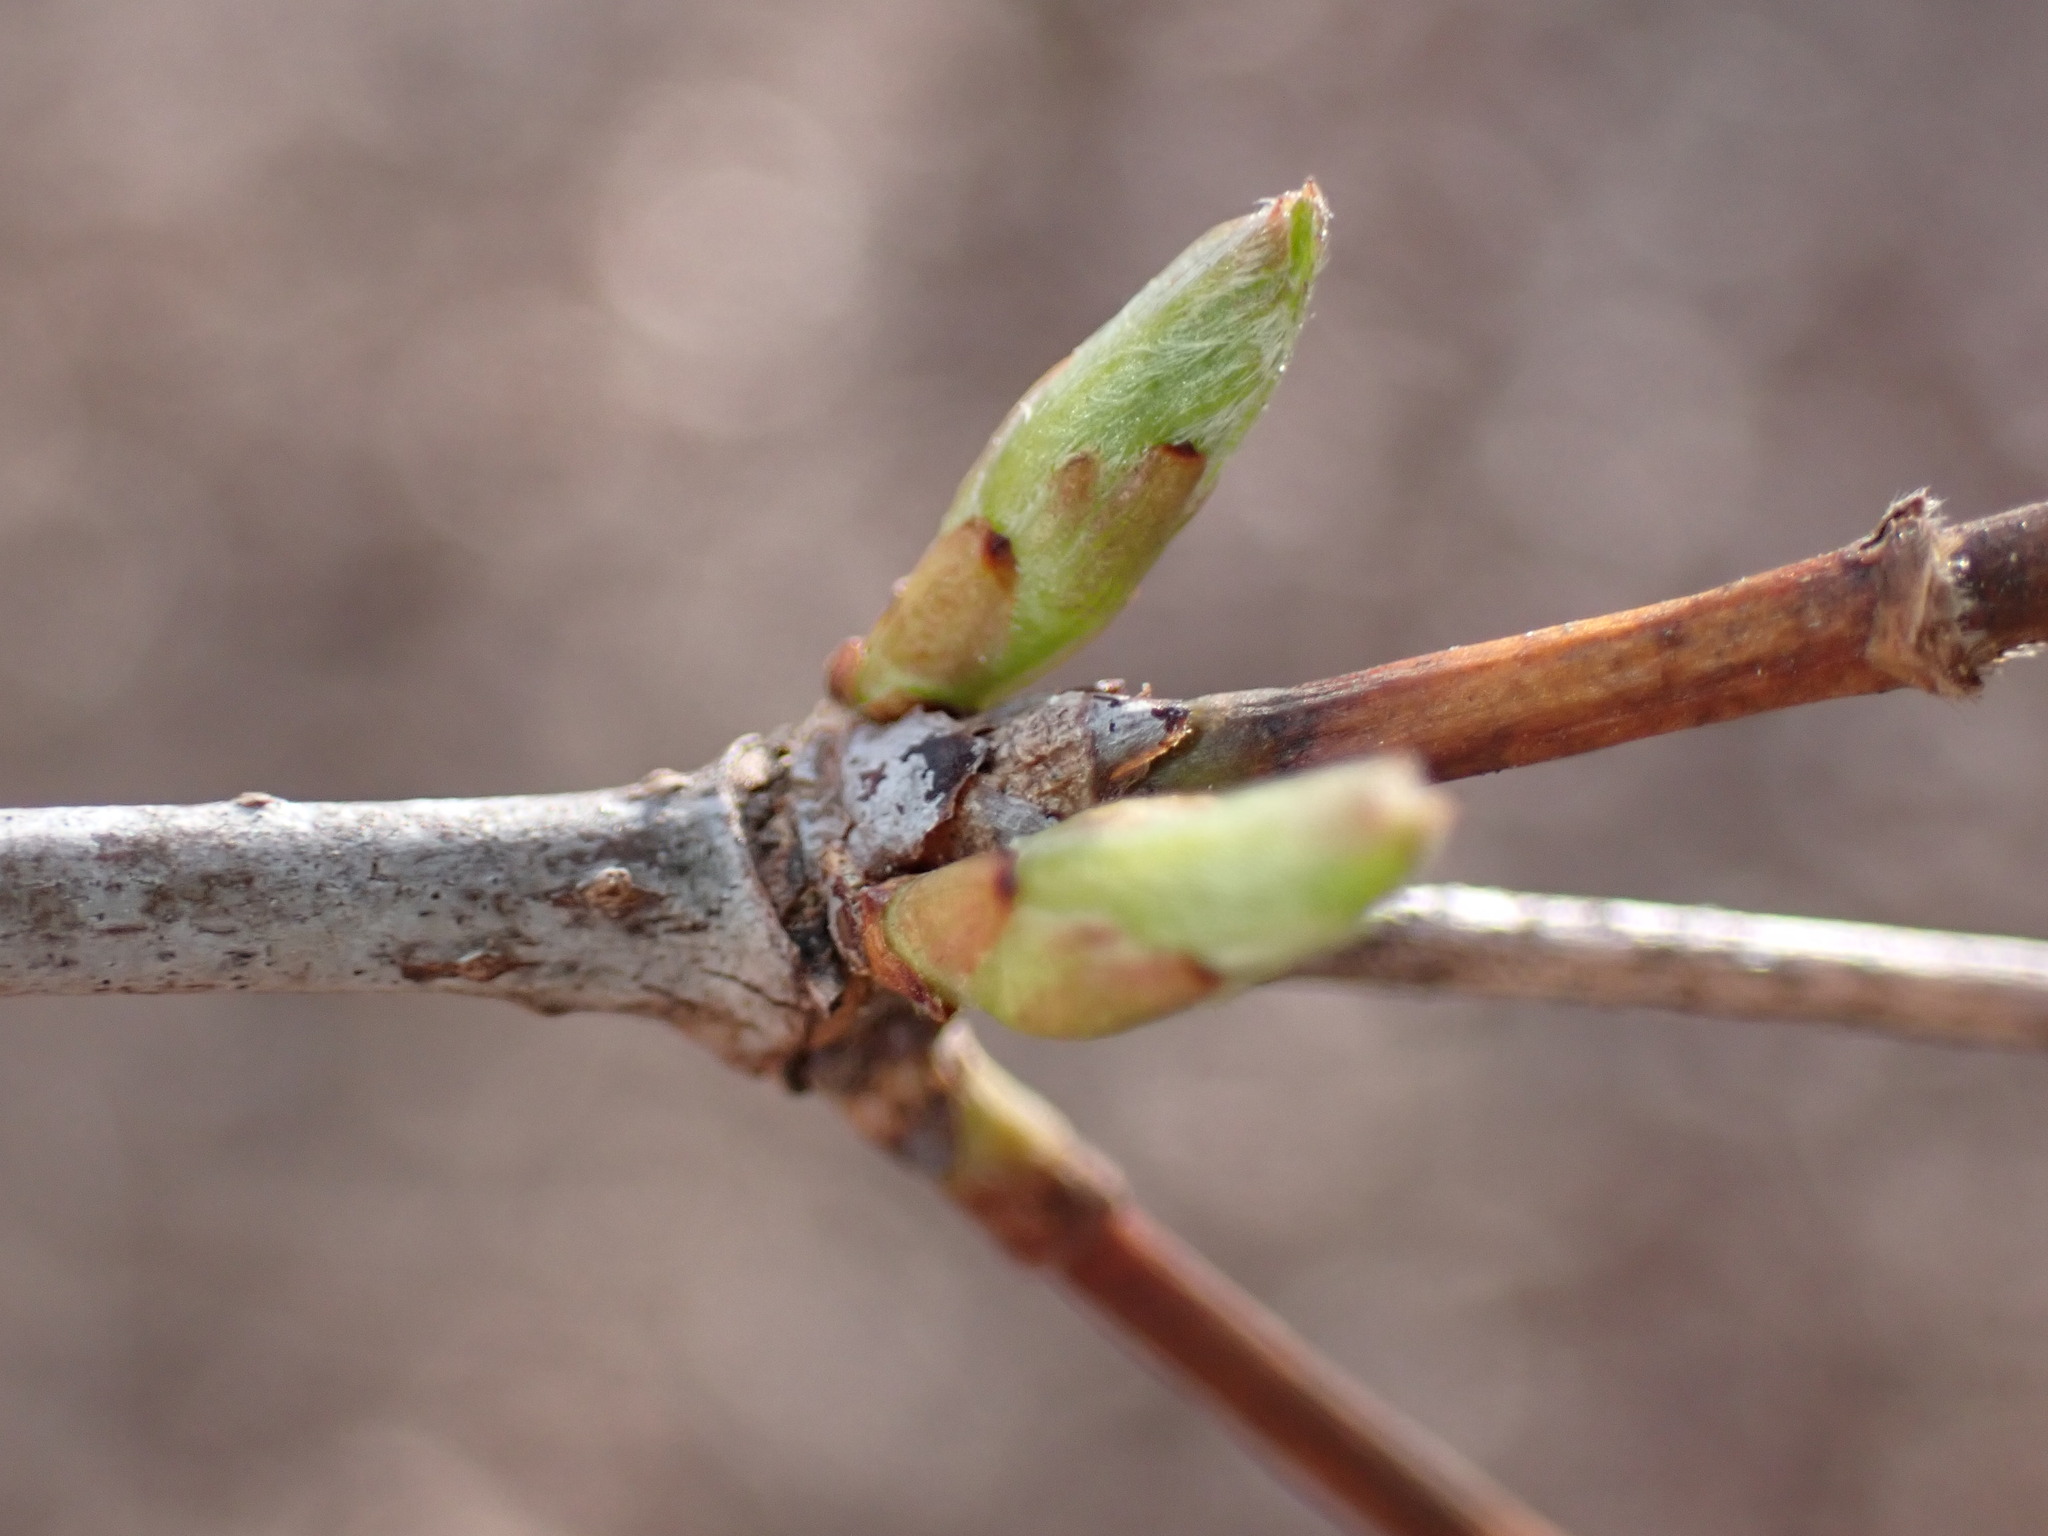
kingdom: Plantae
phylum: Tracheophyta
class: Magnoliopsida
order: Rosales
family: Rosaceae
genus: Rhodotypos
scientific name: Rhodotypos scandens
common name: Jetbead
